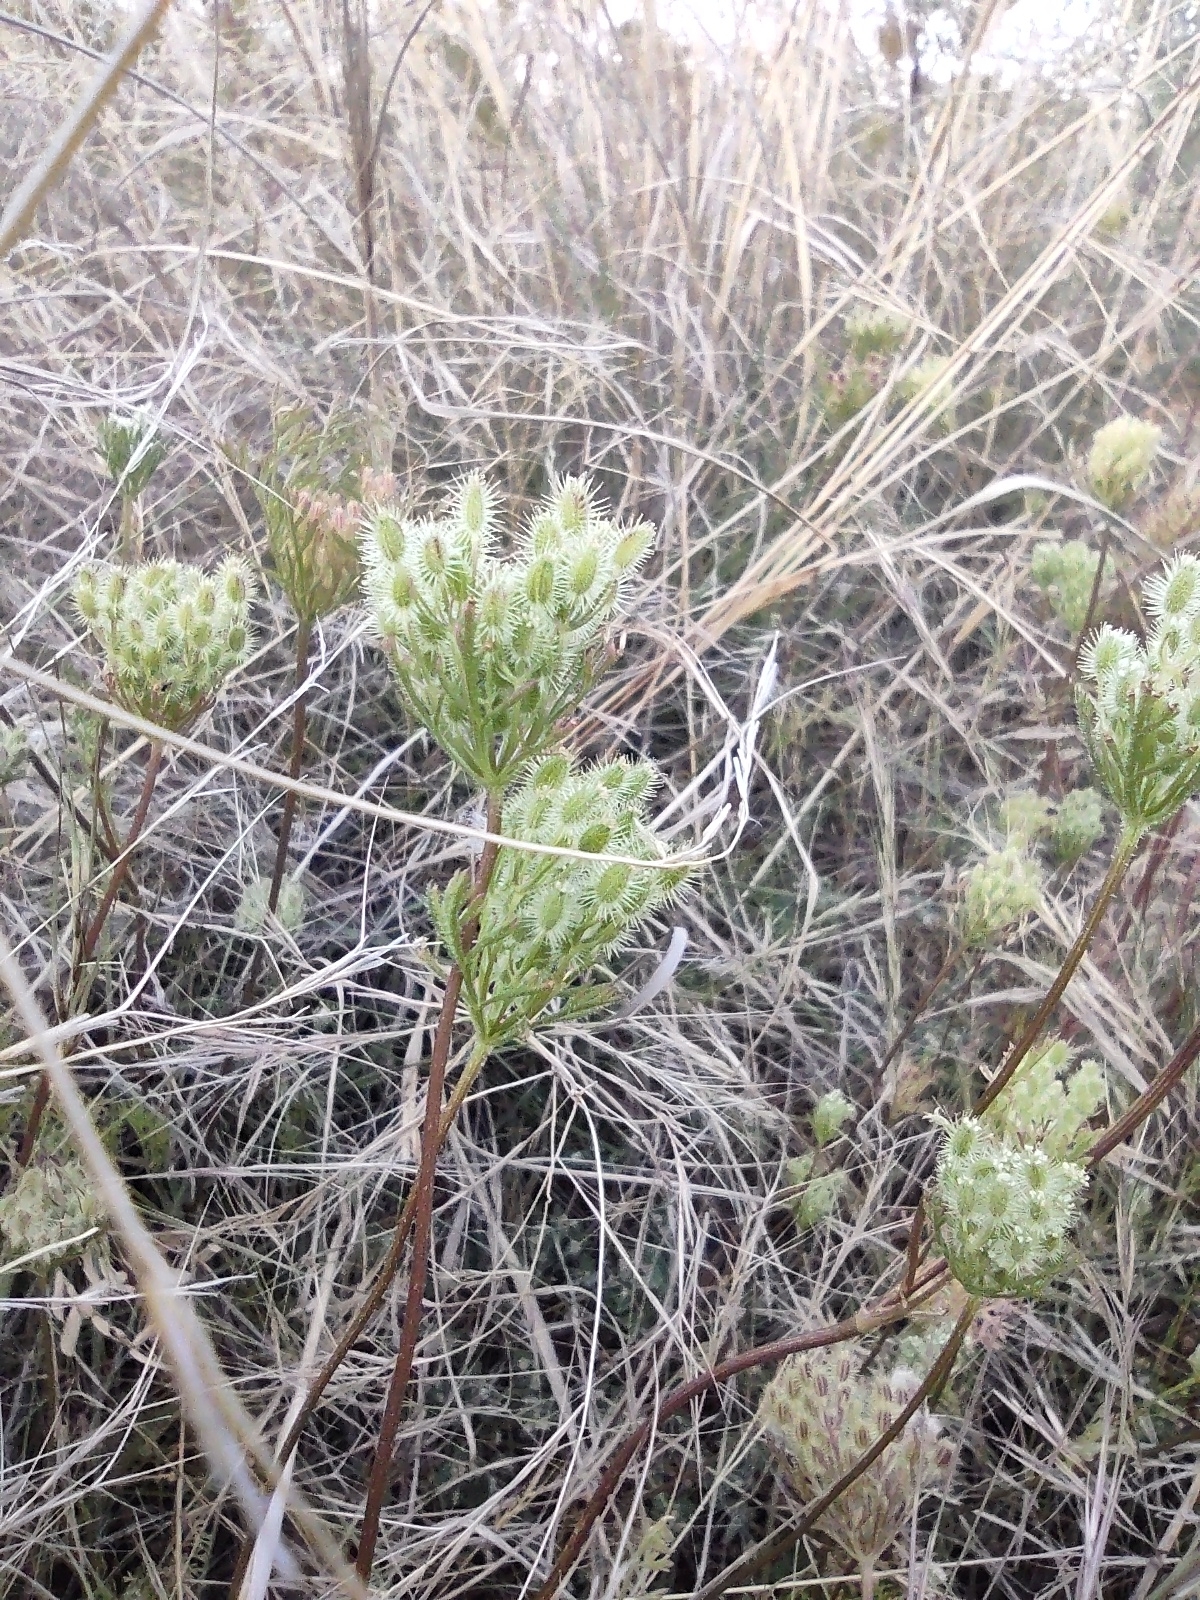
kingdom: Plantae
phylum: Tracheophyta
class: Magnoliopsida
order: Apiales
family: Apiaceae
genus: Daucus
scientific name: Daucus pusillus
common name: Southwest wild carrot
